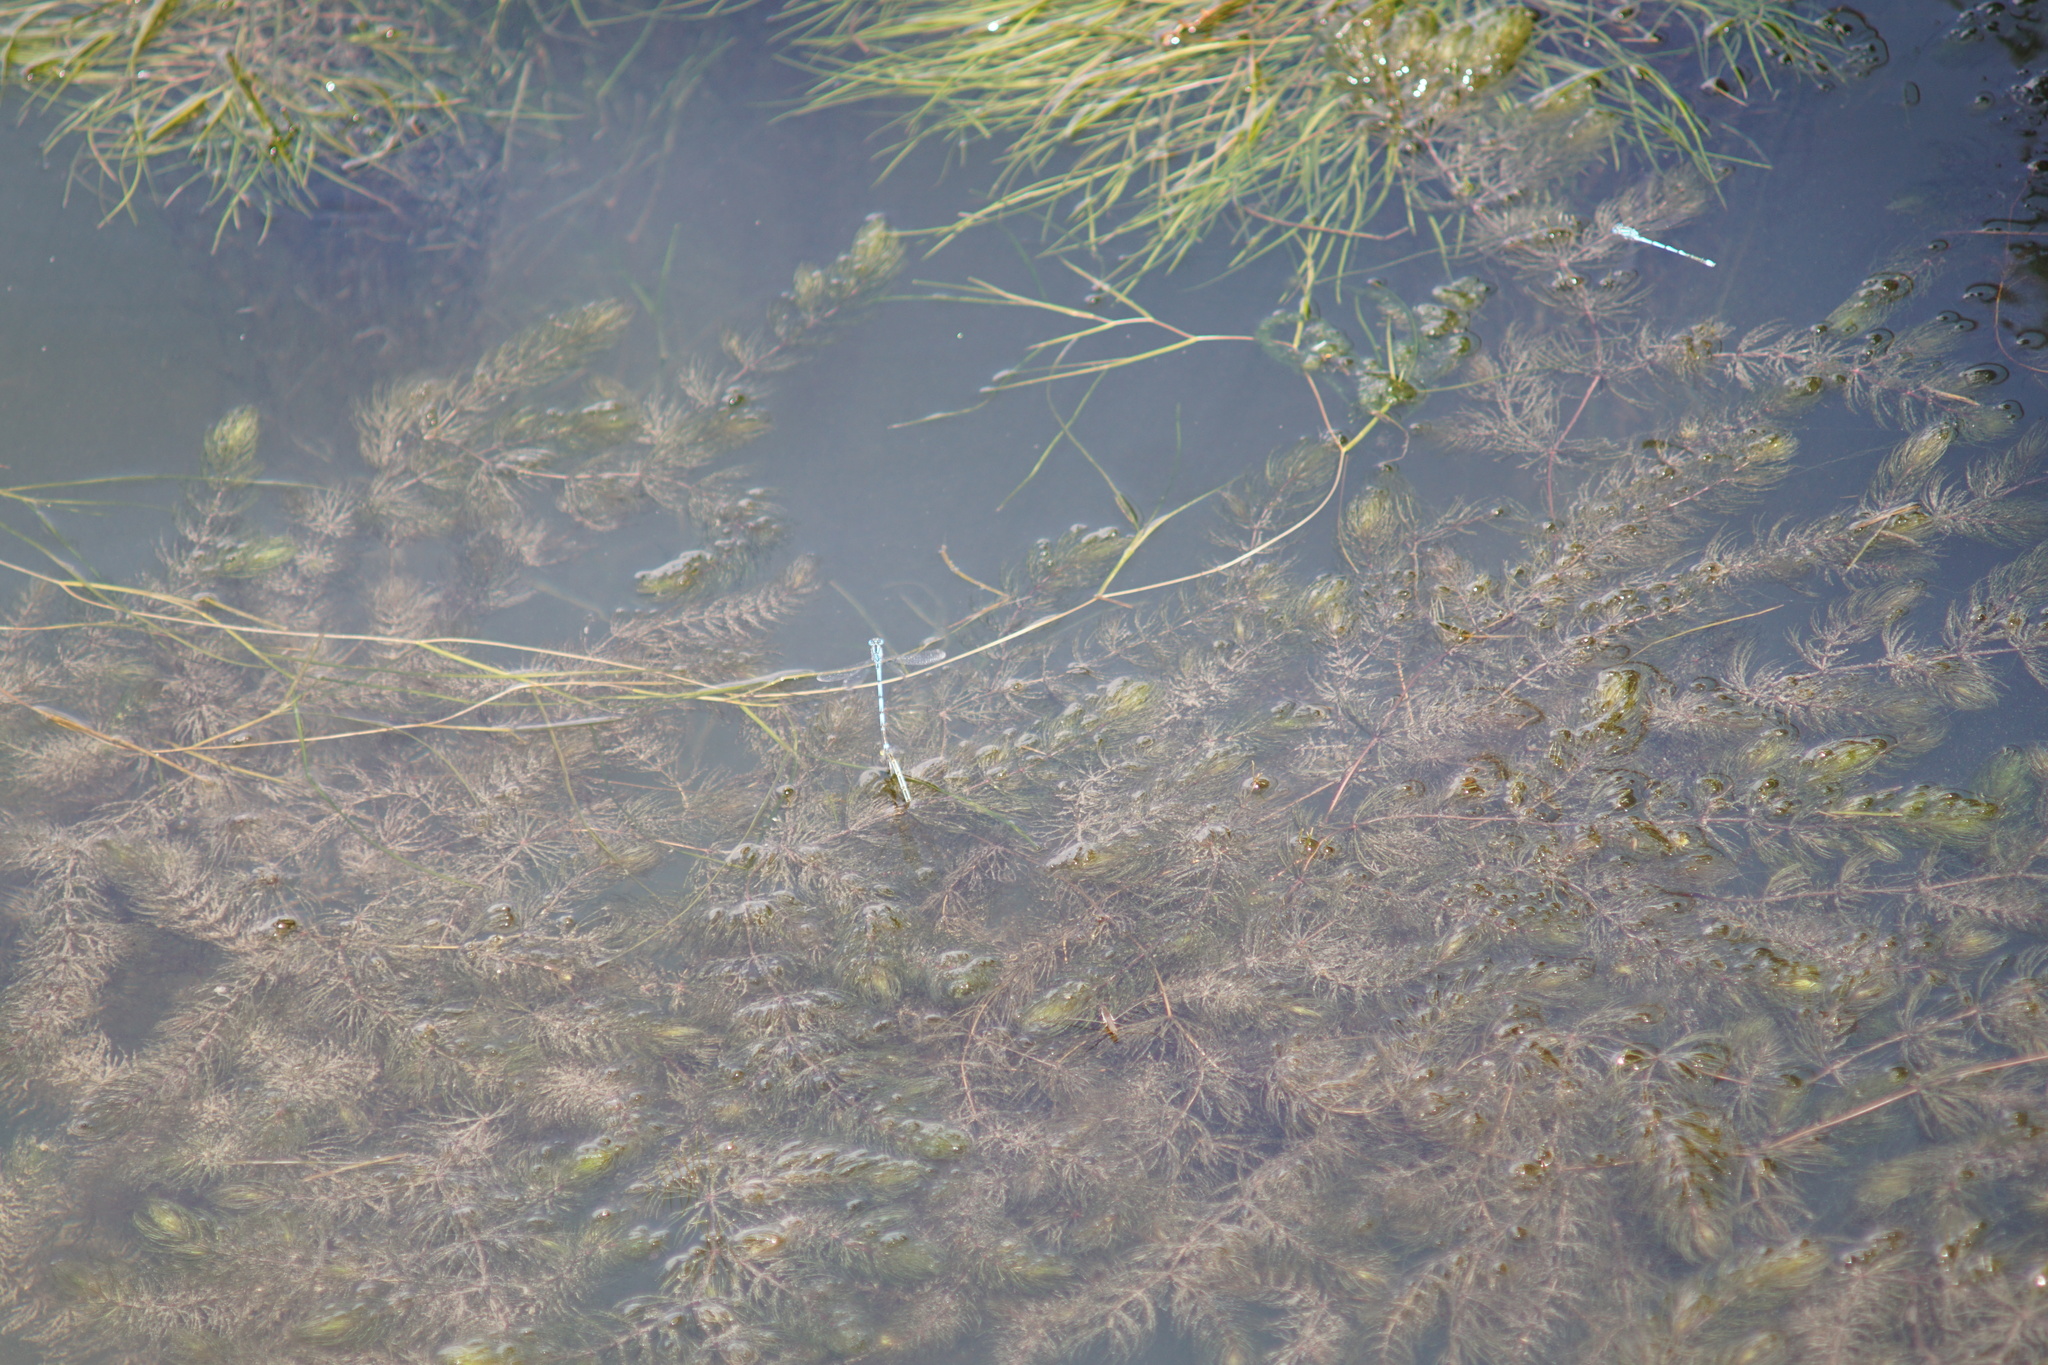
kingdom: Animalia
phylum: Arthropoda
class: Insecta
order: Odonata
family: Coenagrionidae
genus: Erythromma
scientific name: Erythromma lindenii
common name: Blue-eye
